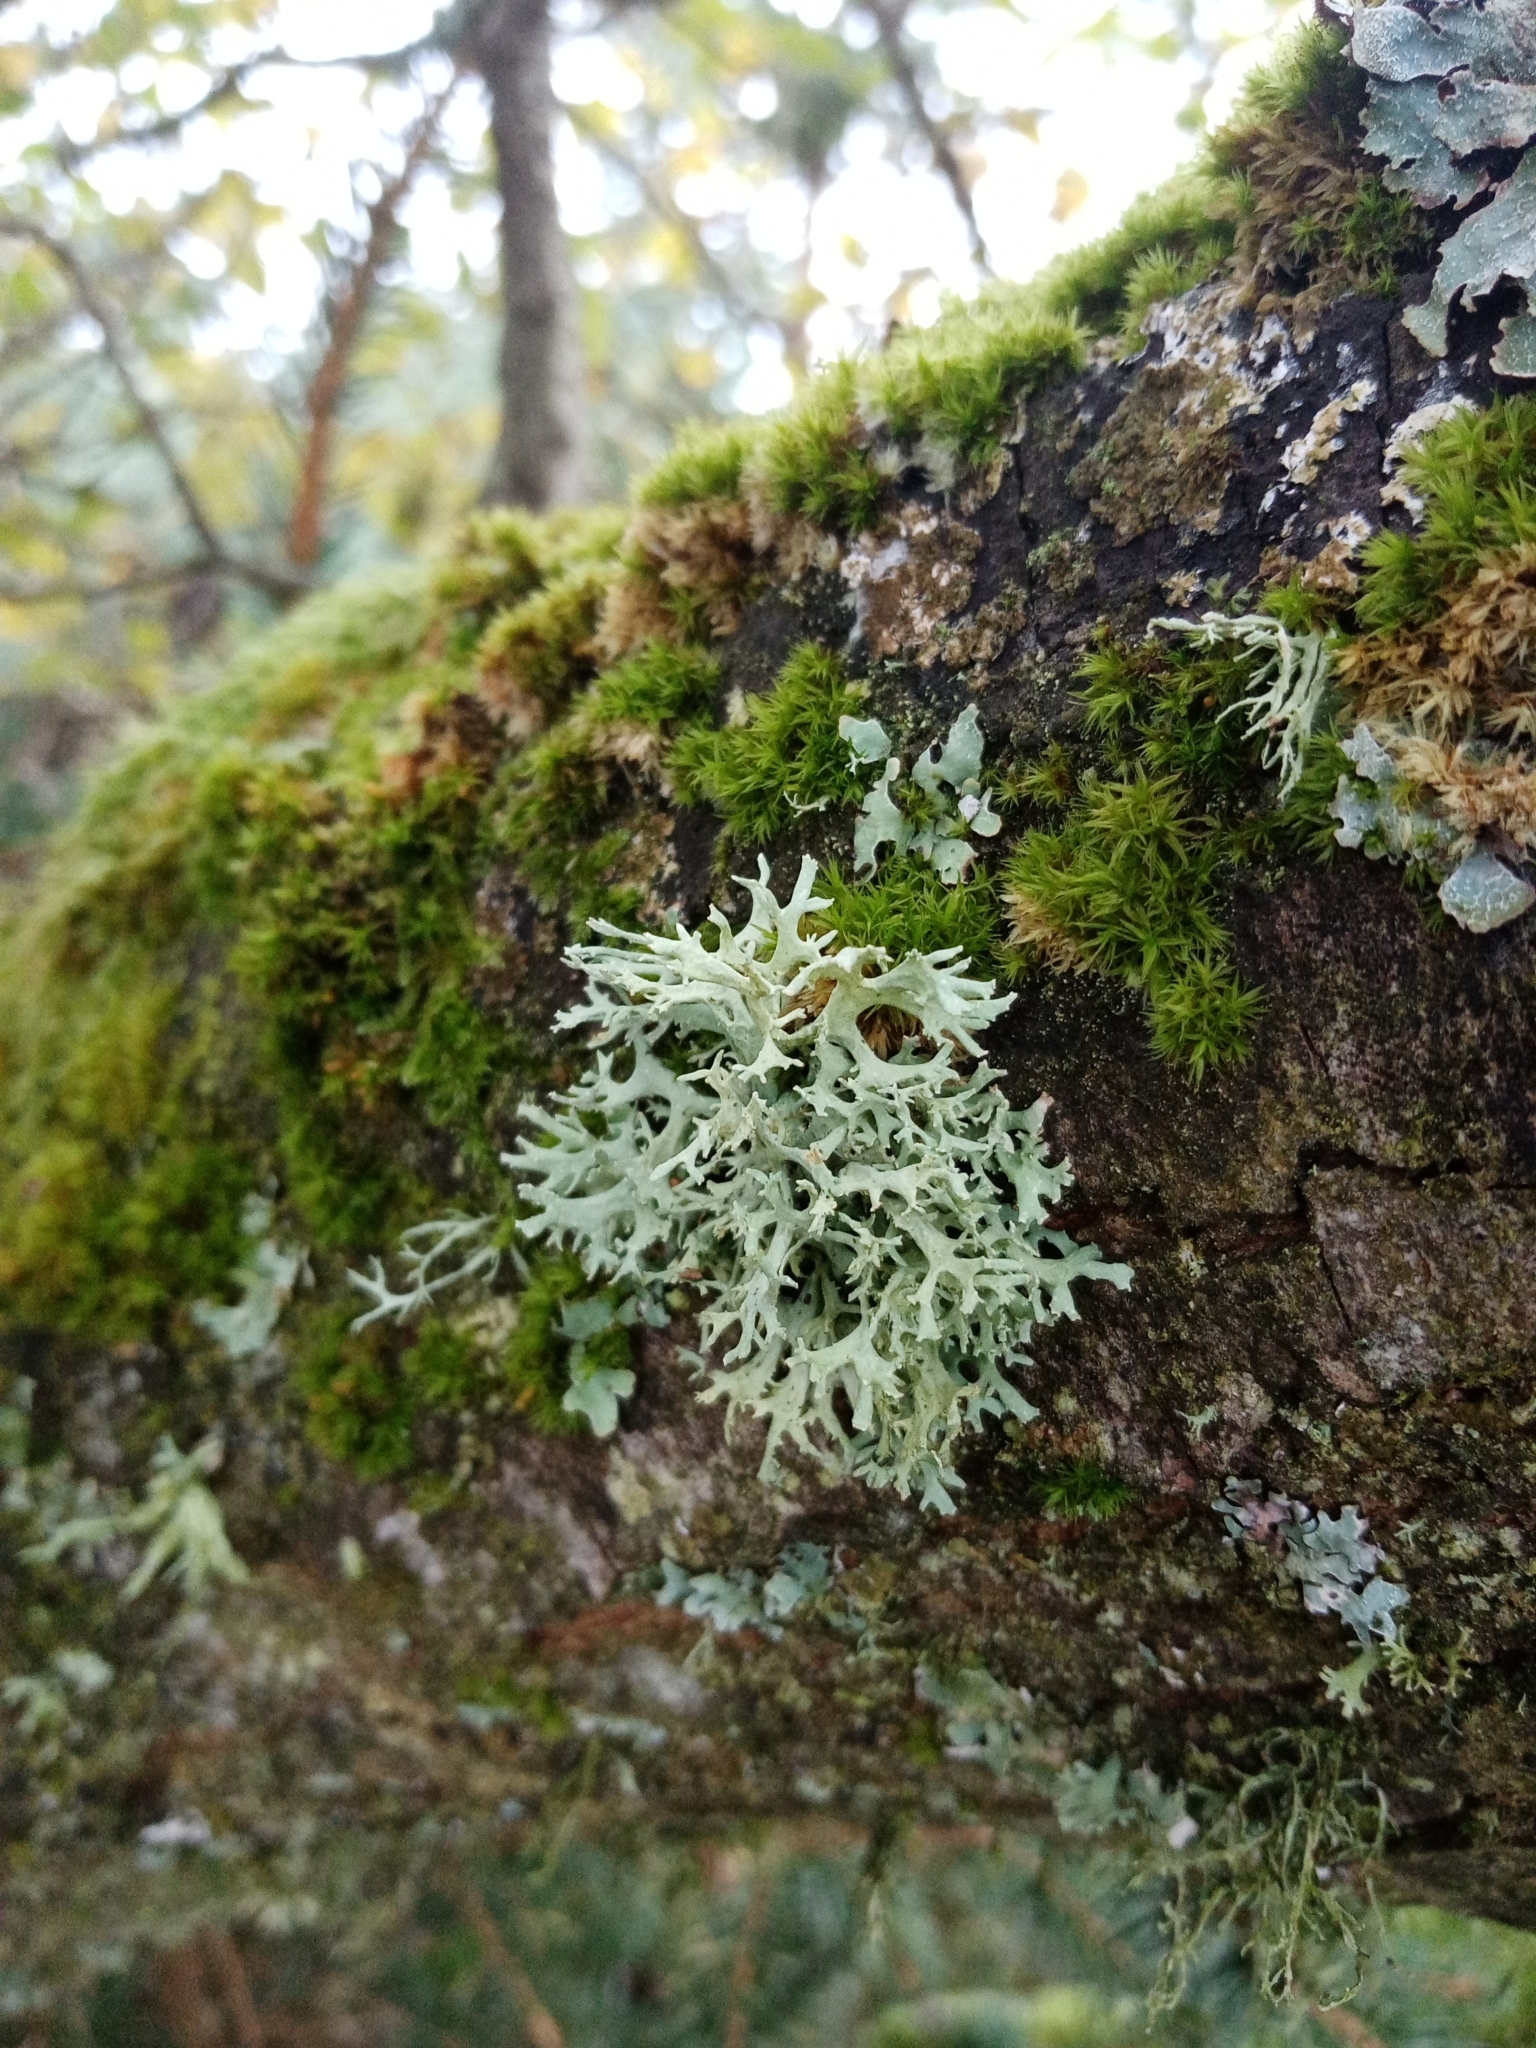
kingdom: Fungi
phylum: Ascomycota
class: Lecanoromycetes
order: Lecanorales
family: Parmeliaceae
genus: Evernia
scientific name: Evernia prunastri
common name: Oak moss
